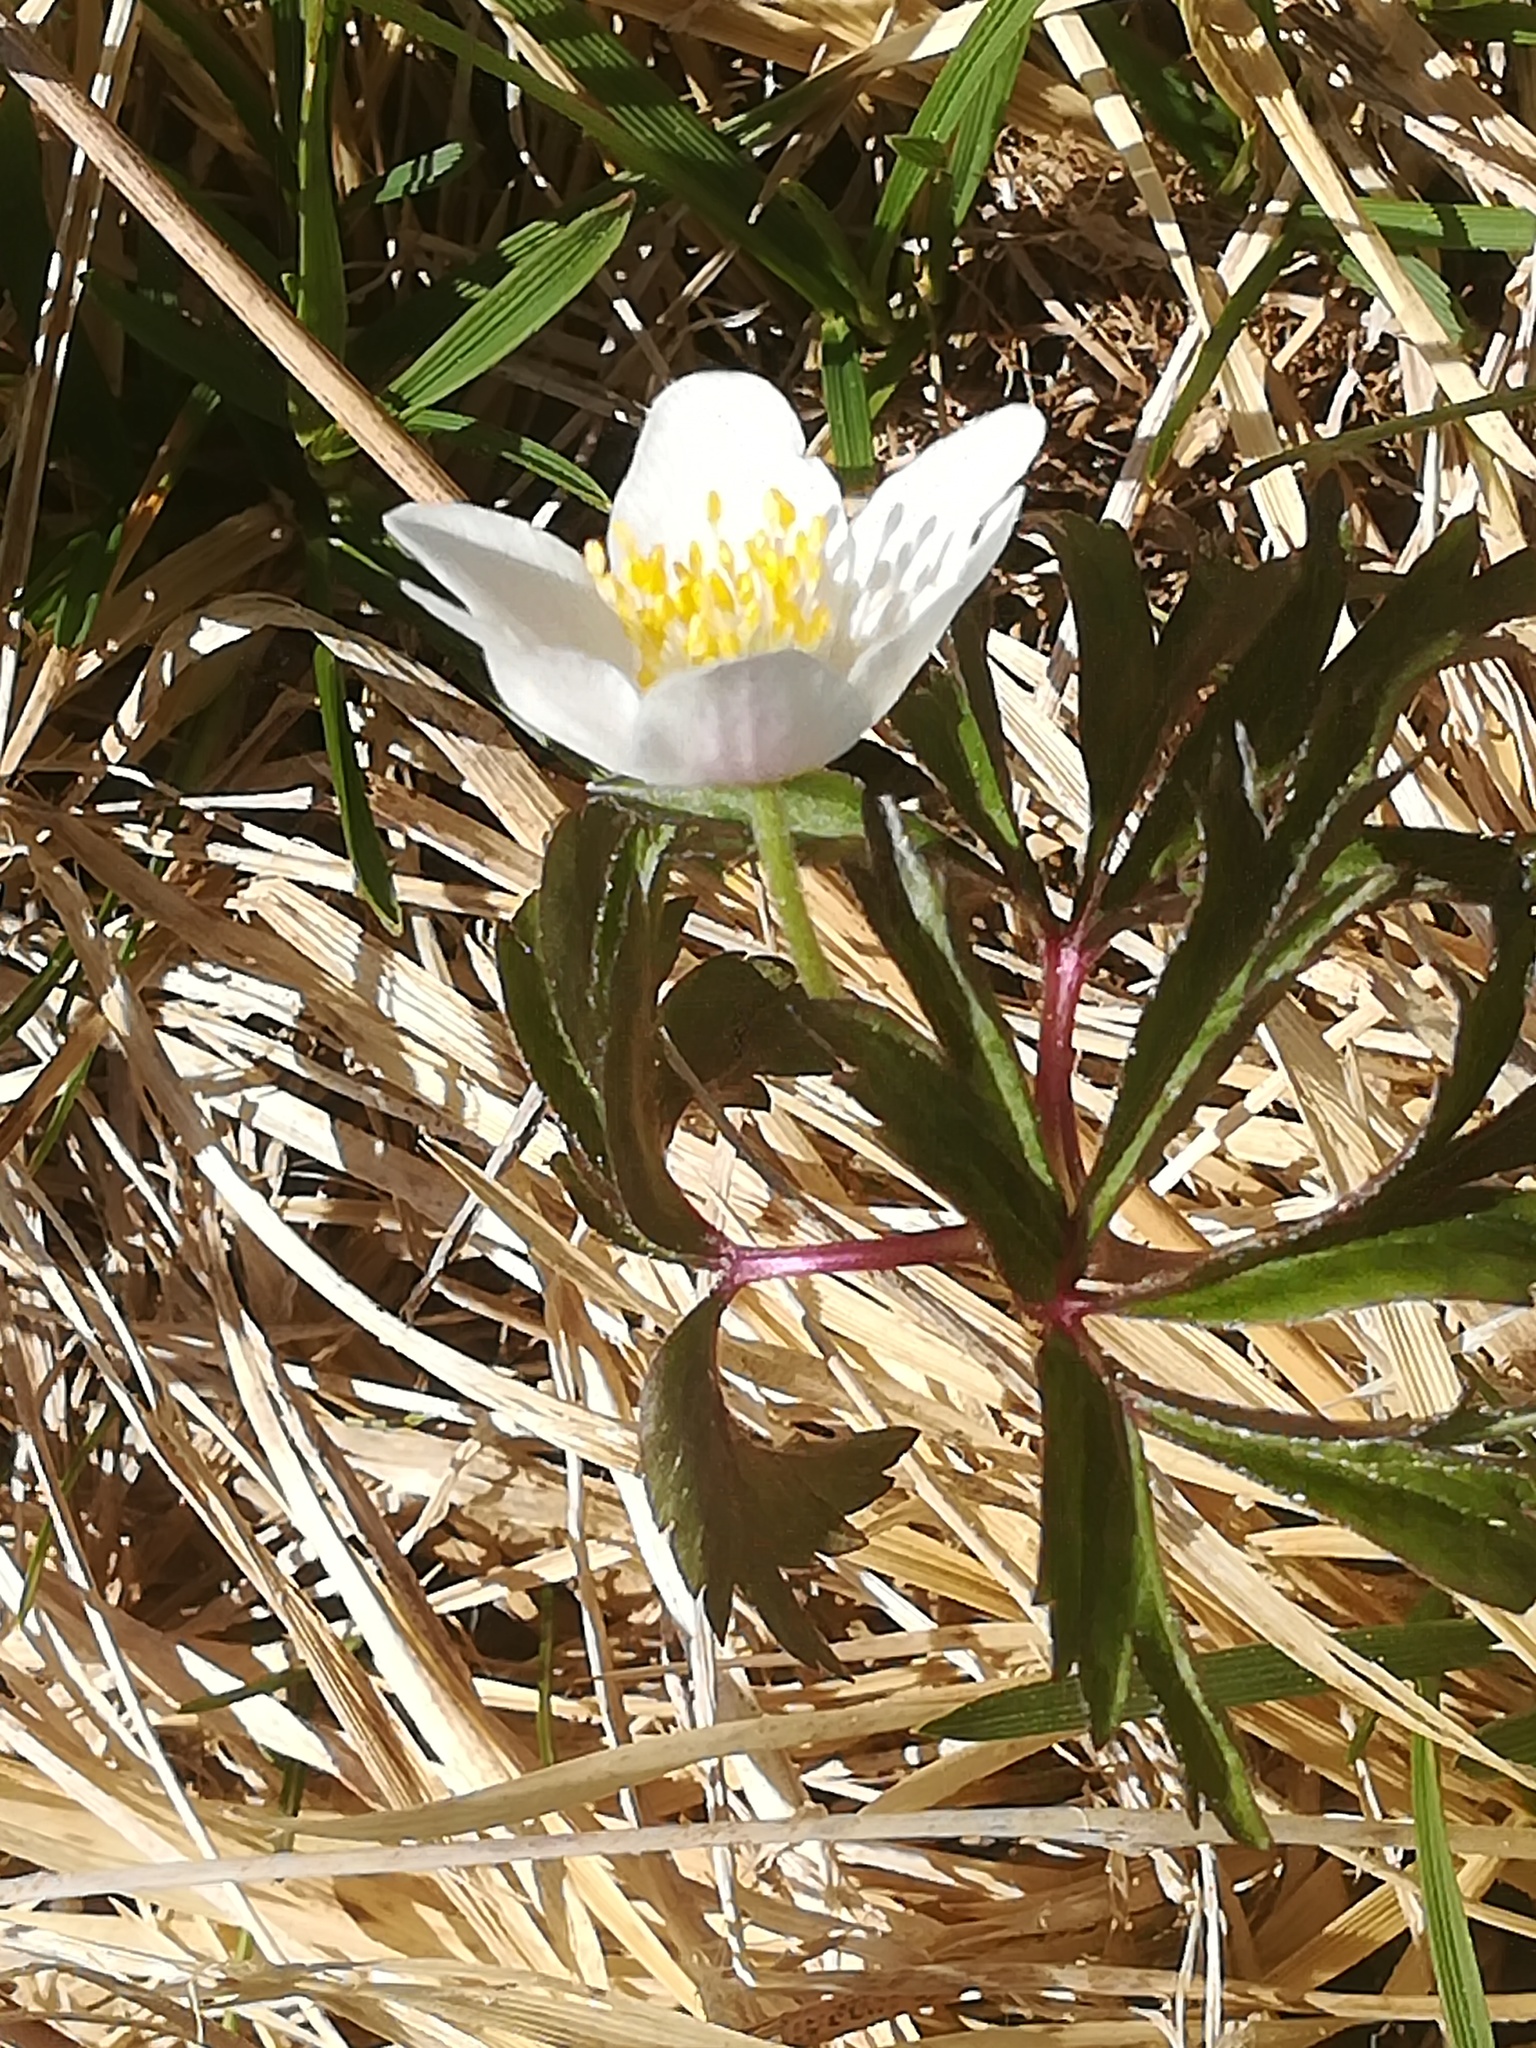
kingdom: Plantae
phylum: Tracheophyta
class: Magnoliopsida
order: Ranunculales
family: Ranunculaceae
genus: Anemone
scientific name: Anemone nemorosa
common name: Wood anemone
